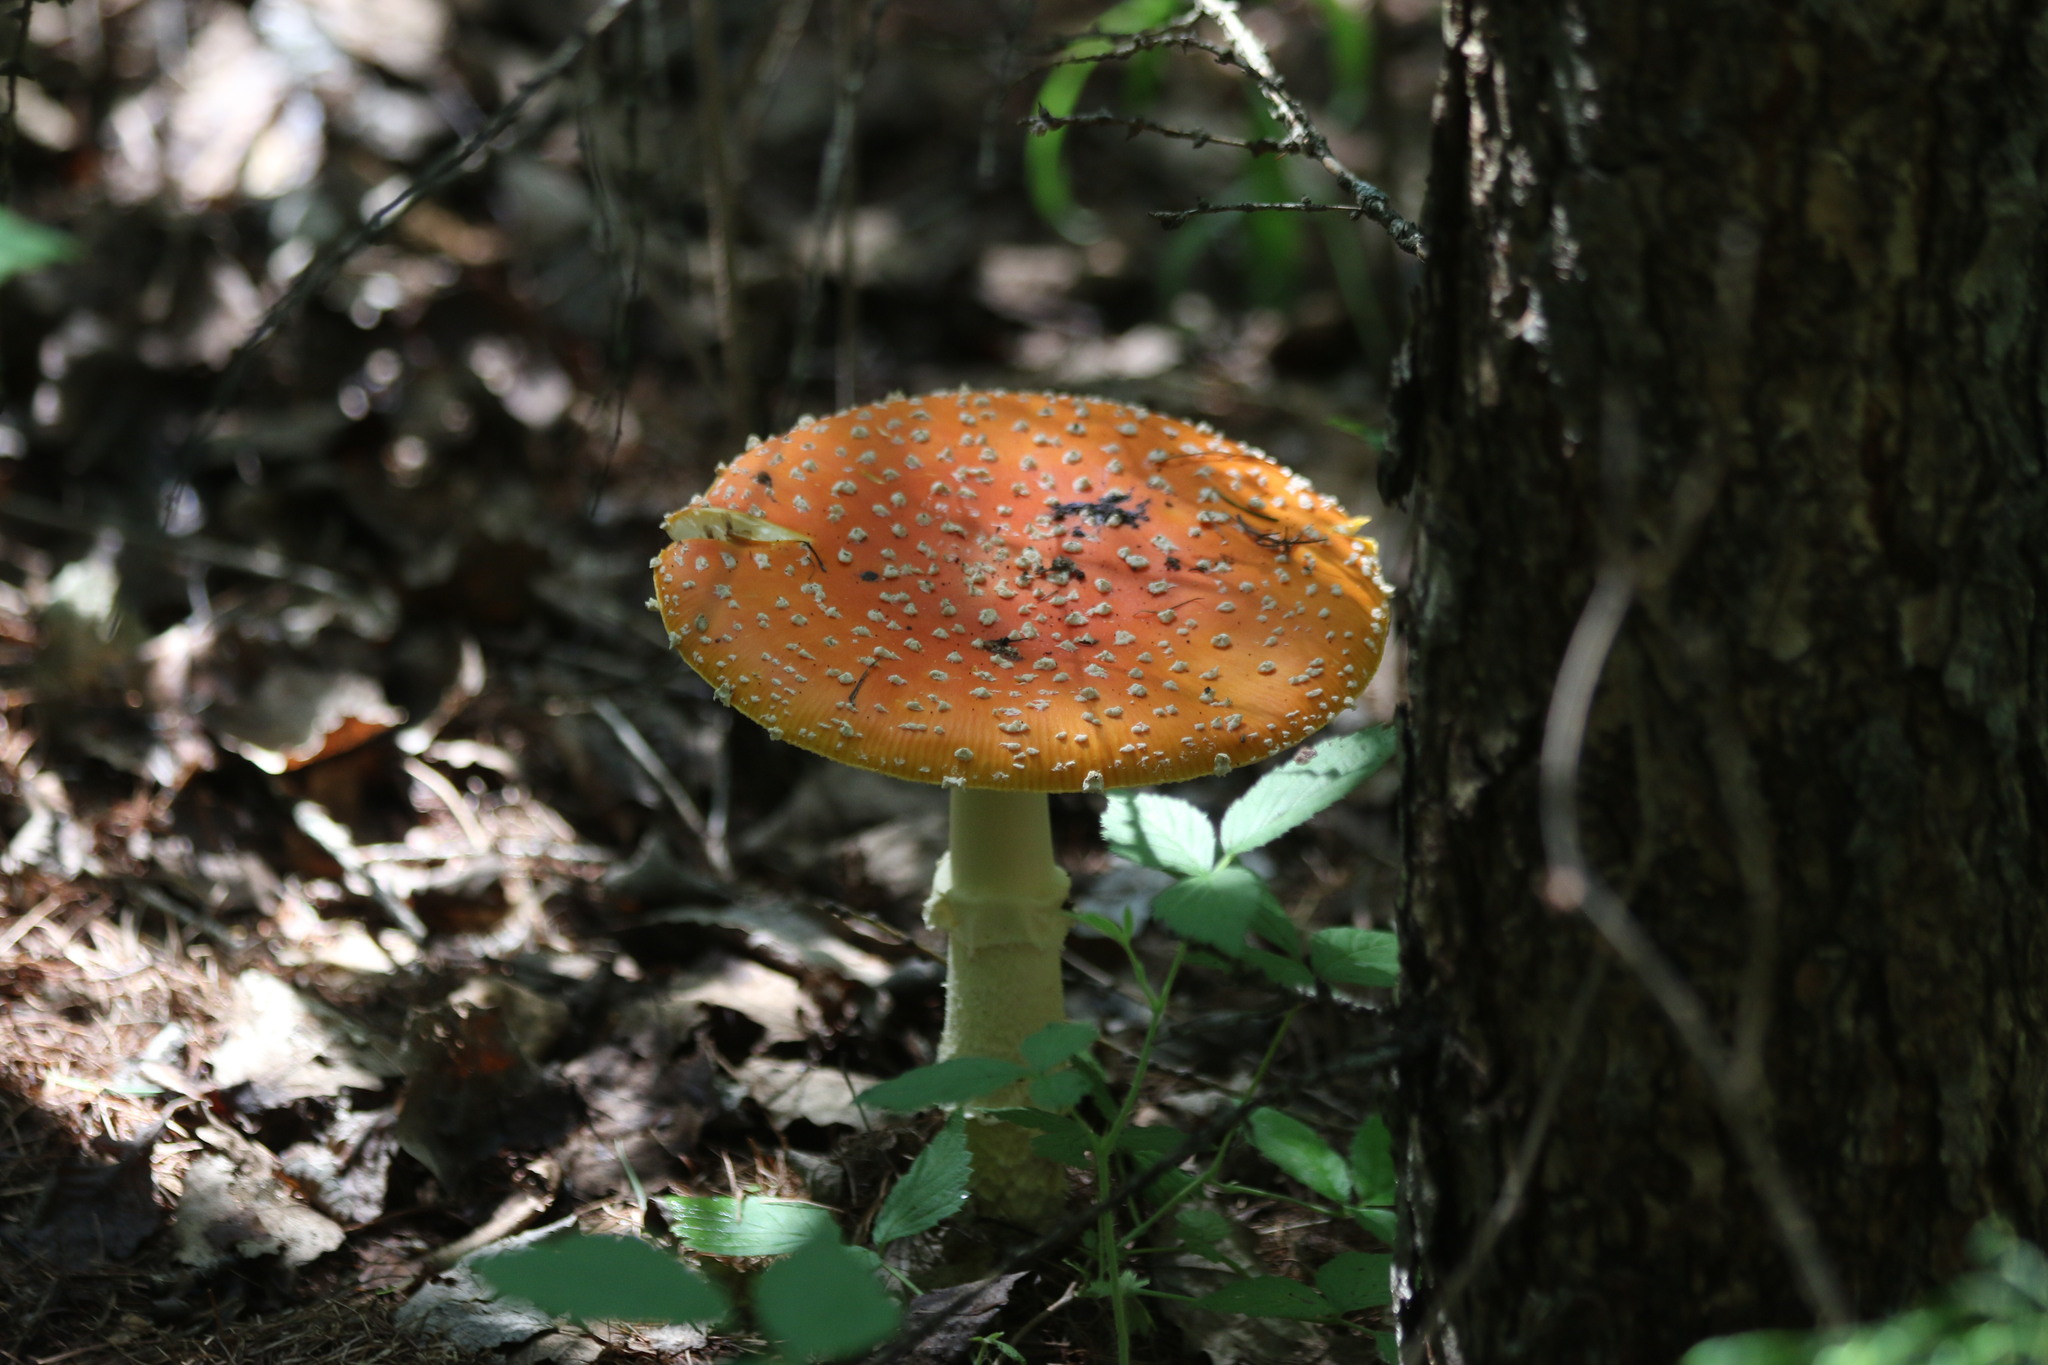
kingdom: Fungi
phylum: Basidiomycota
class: Agaricomycetes
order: Agaricales
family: Amanitaceae
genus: Amanita
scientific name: Amanita muscaria
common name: Fly agaric
